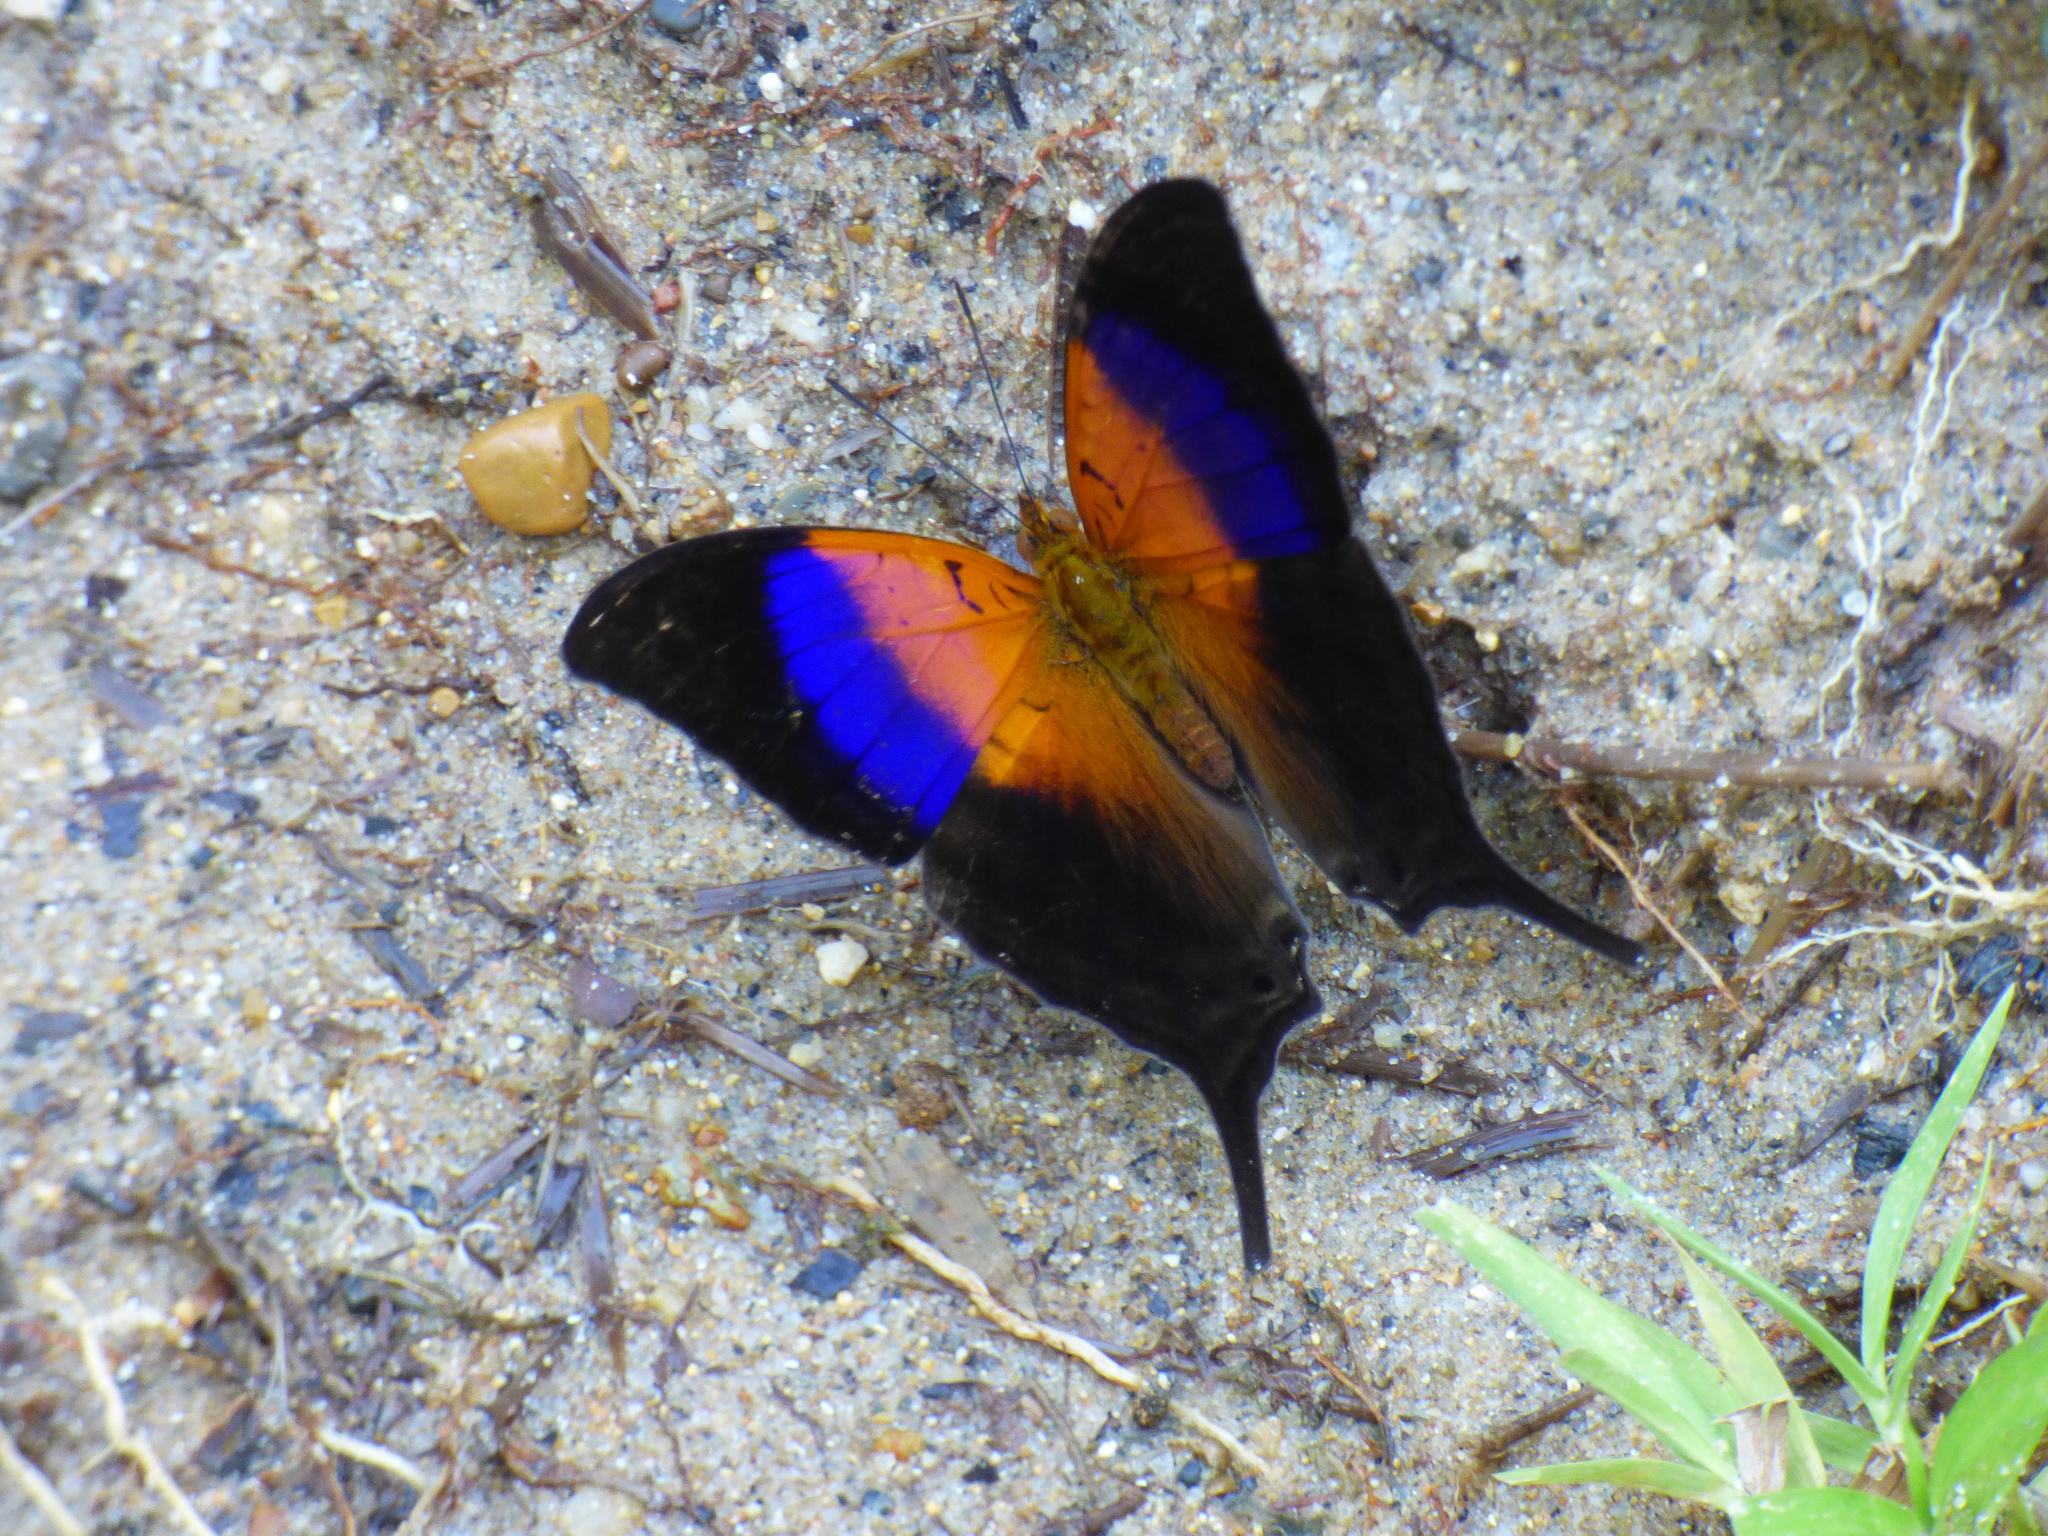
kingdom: Animalia
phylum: Arthropoda
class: Insecta
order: Lepidoptera
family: Nymphalidae
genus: Marpesia
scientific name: Marpesia furcula
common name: Sunset daggerwing
